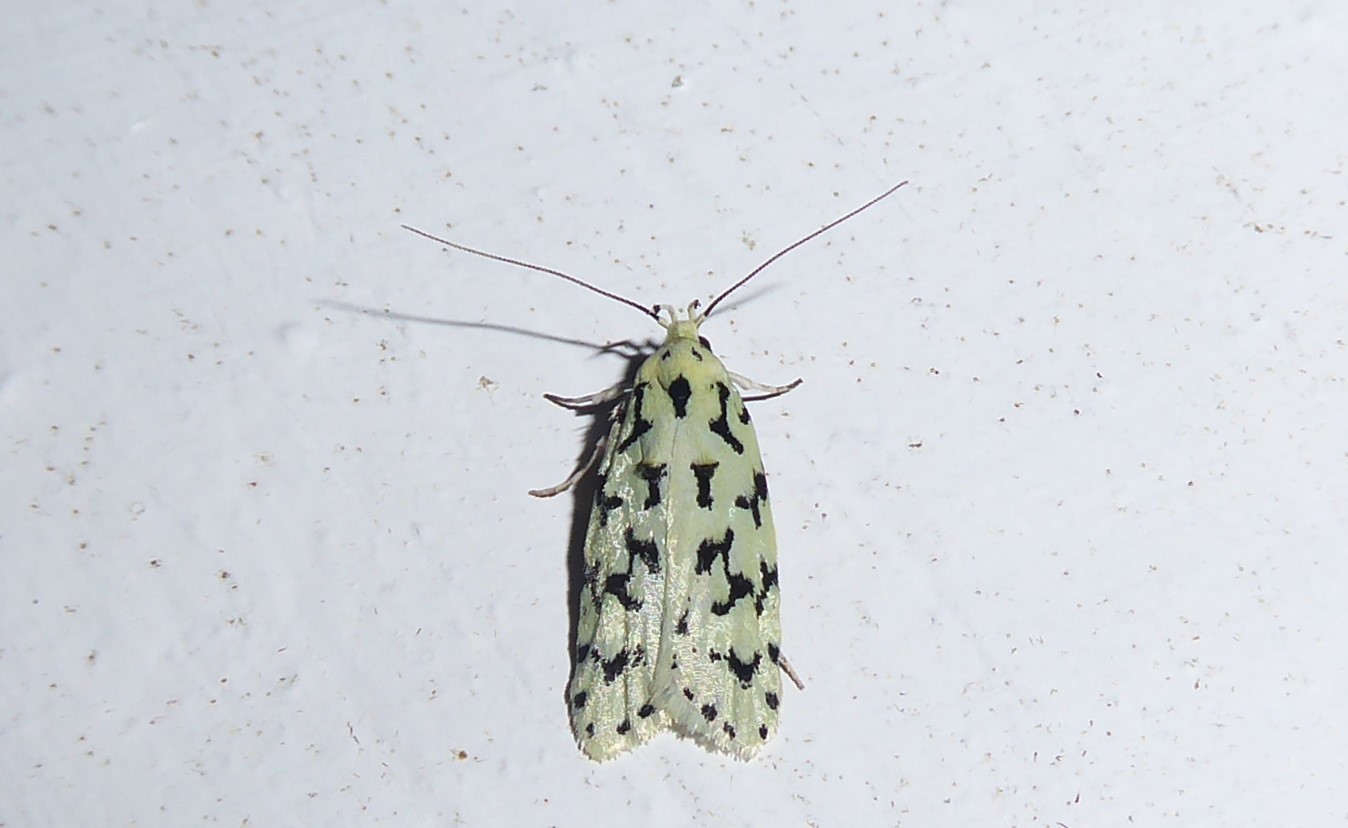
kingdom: Animalia
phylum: Arthropoda
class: Insecta
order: Lepidoptera
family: Oecophoridae
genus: Izatha
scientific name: Izatha huttoni
